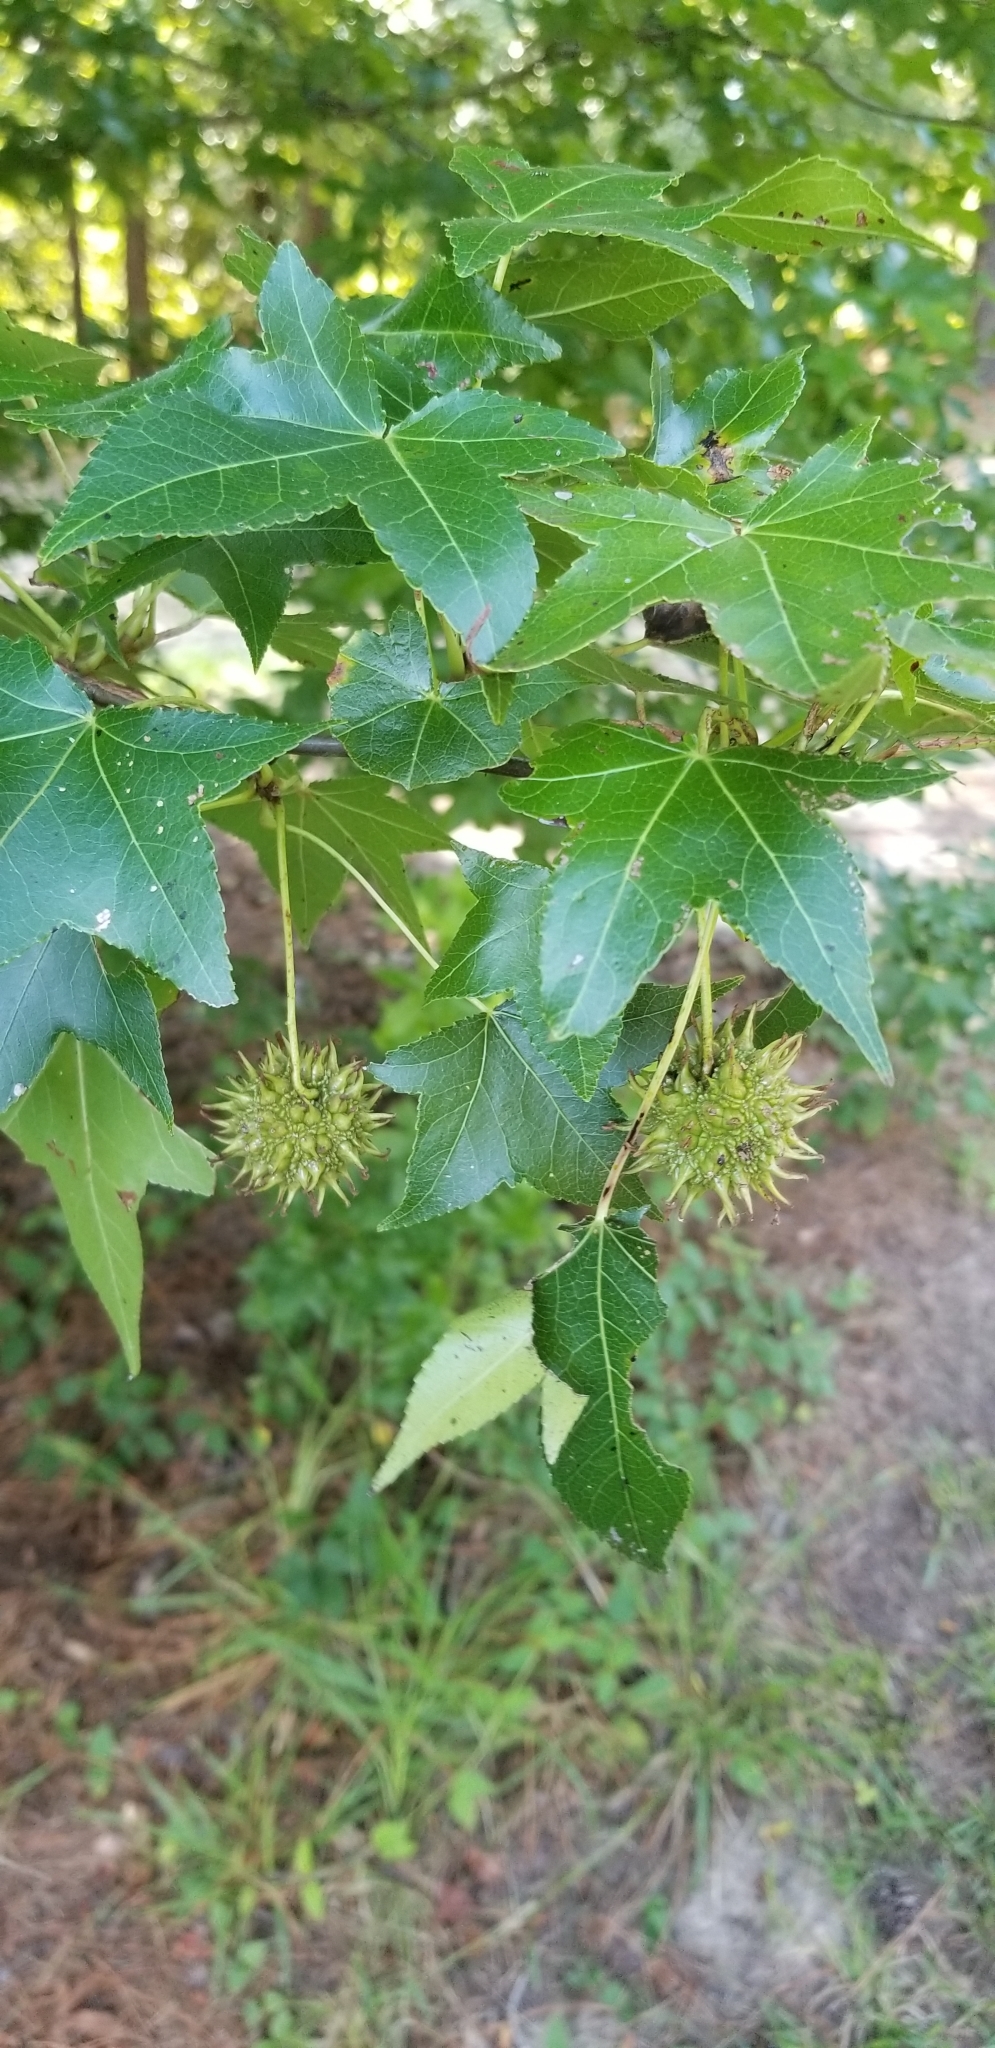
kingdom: Plantae
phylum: Tracheophyta
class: Magnoliopsida
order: Saxifragales
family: Altingiaceae
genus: Liquidambar
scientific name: Liquidambar styraciflua
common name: Sweet gum
